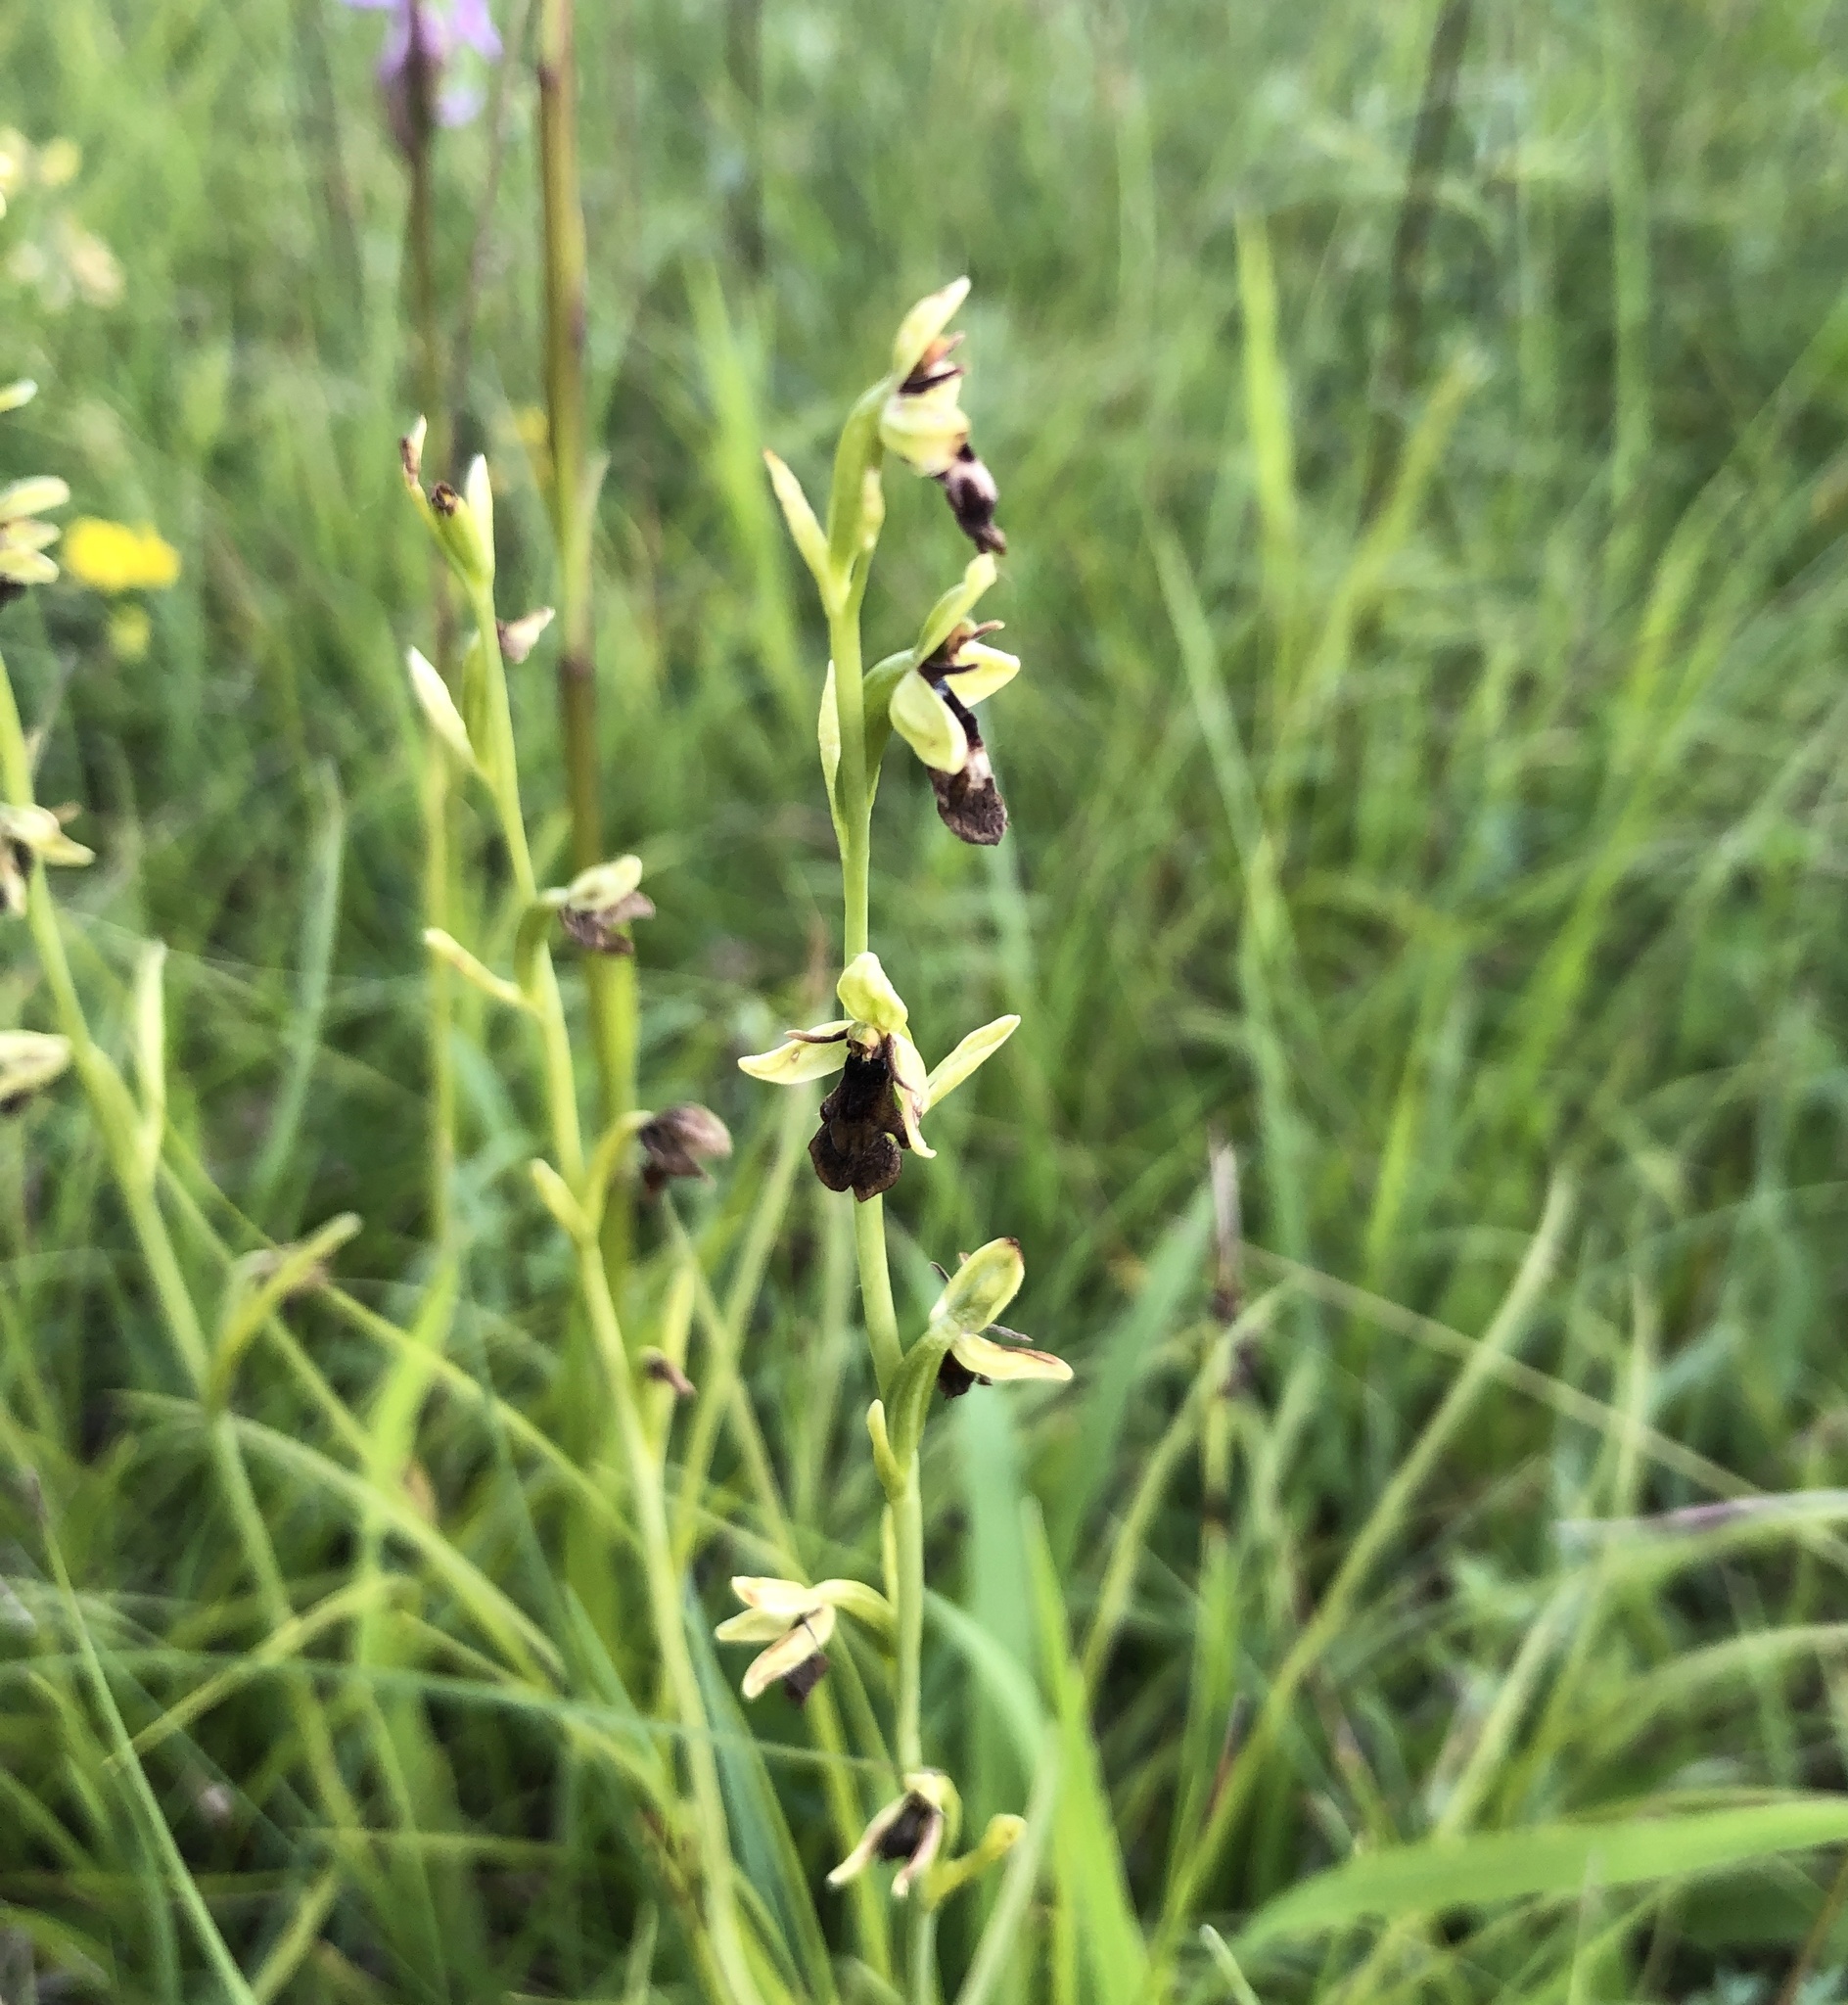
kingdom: Plantae
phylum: Tracheophyta
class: Liliopsida
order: Asparagales
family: Orchidaceae
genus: Ophrys
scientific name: Ophrys insectifera
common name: Fly orchid
